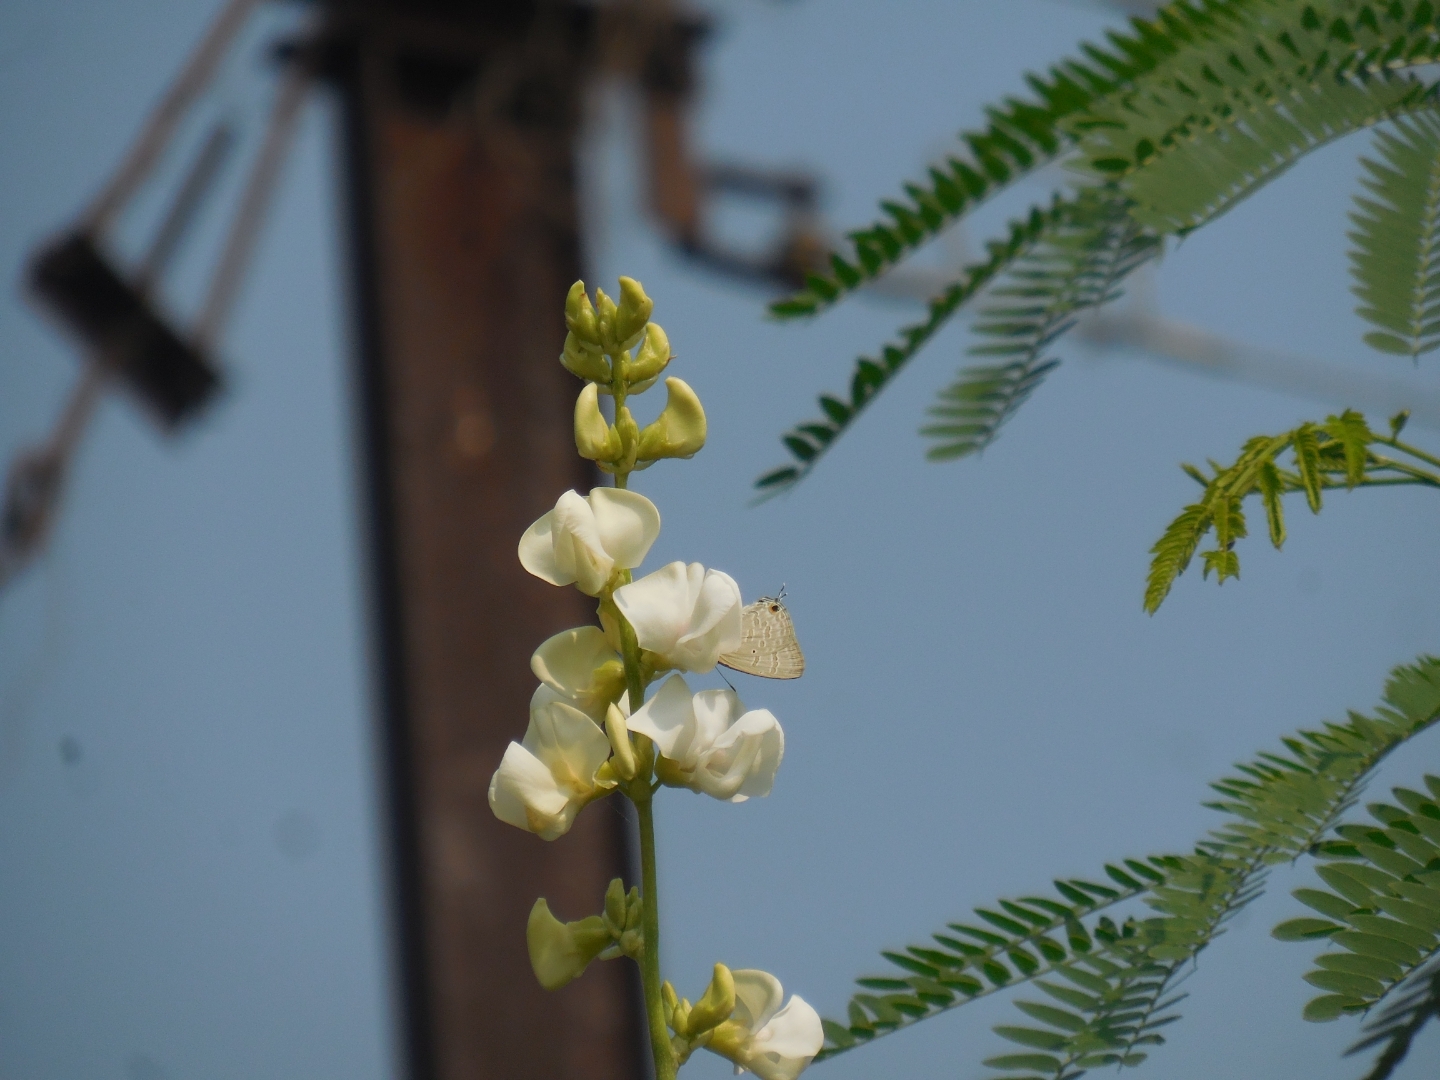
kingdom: Plantae
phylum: Tracheophyta
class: Magnoliopsida
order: Fabales
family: Fabaceae
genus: Lablab
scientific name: Lablab purpureus
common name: Lablab-bean
